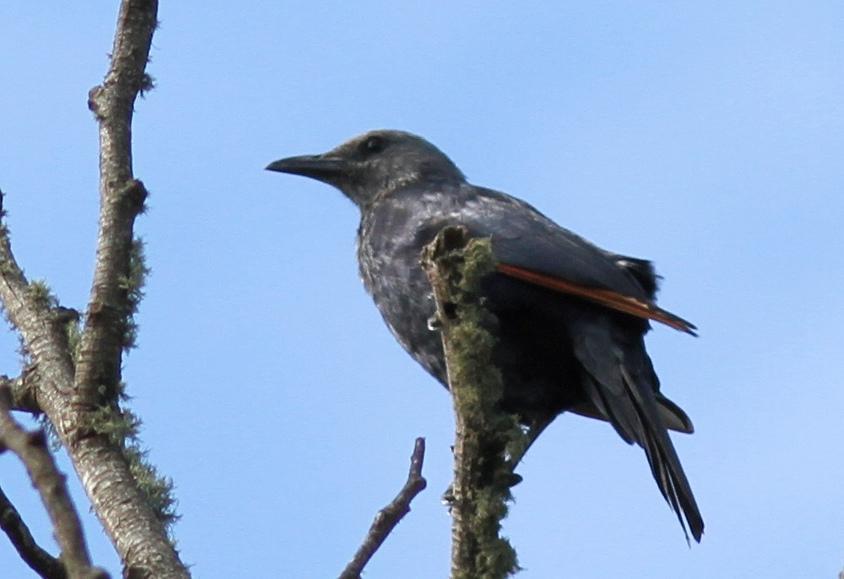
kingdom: Animalia
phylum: Chordata
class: Aves
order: Passeriformes
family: Sturnidae
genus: Onychognathus
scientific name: Onychognathus morio
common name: Red-winged starling
